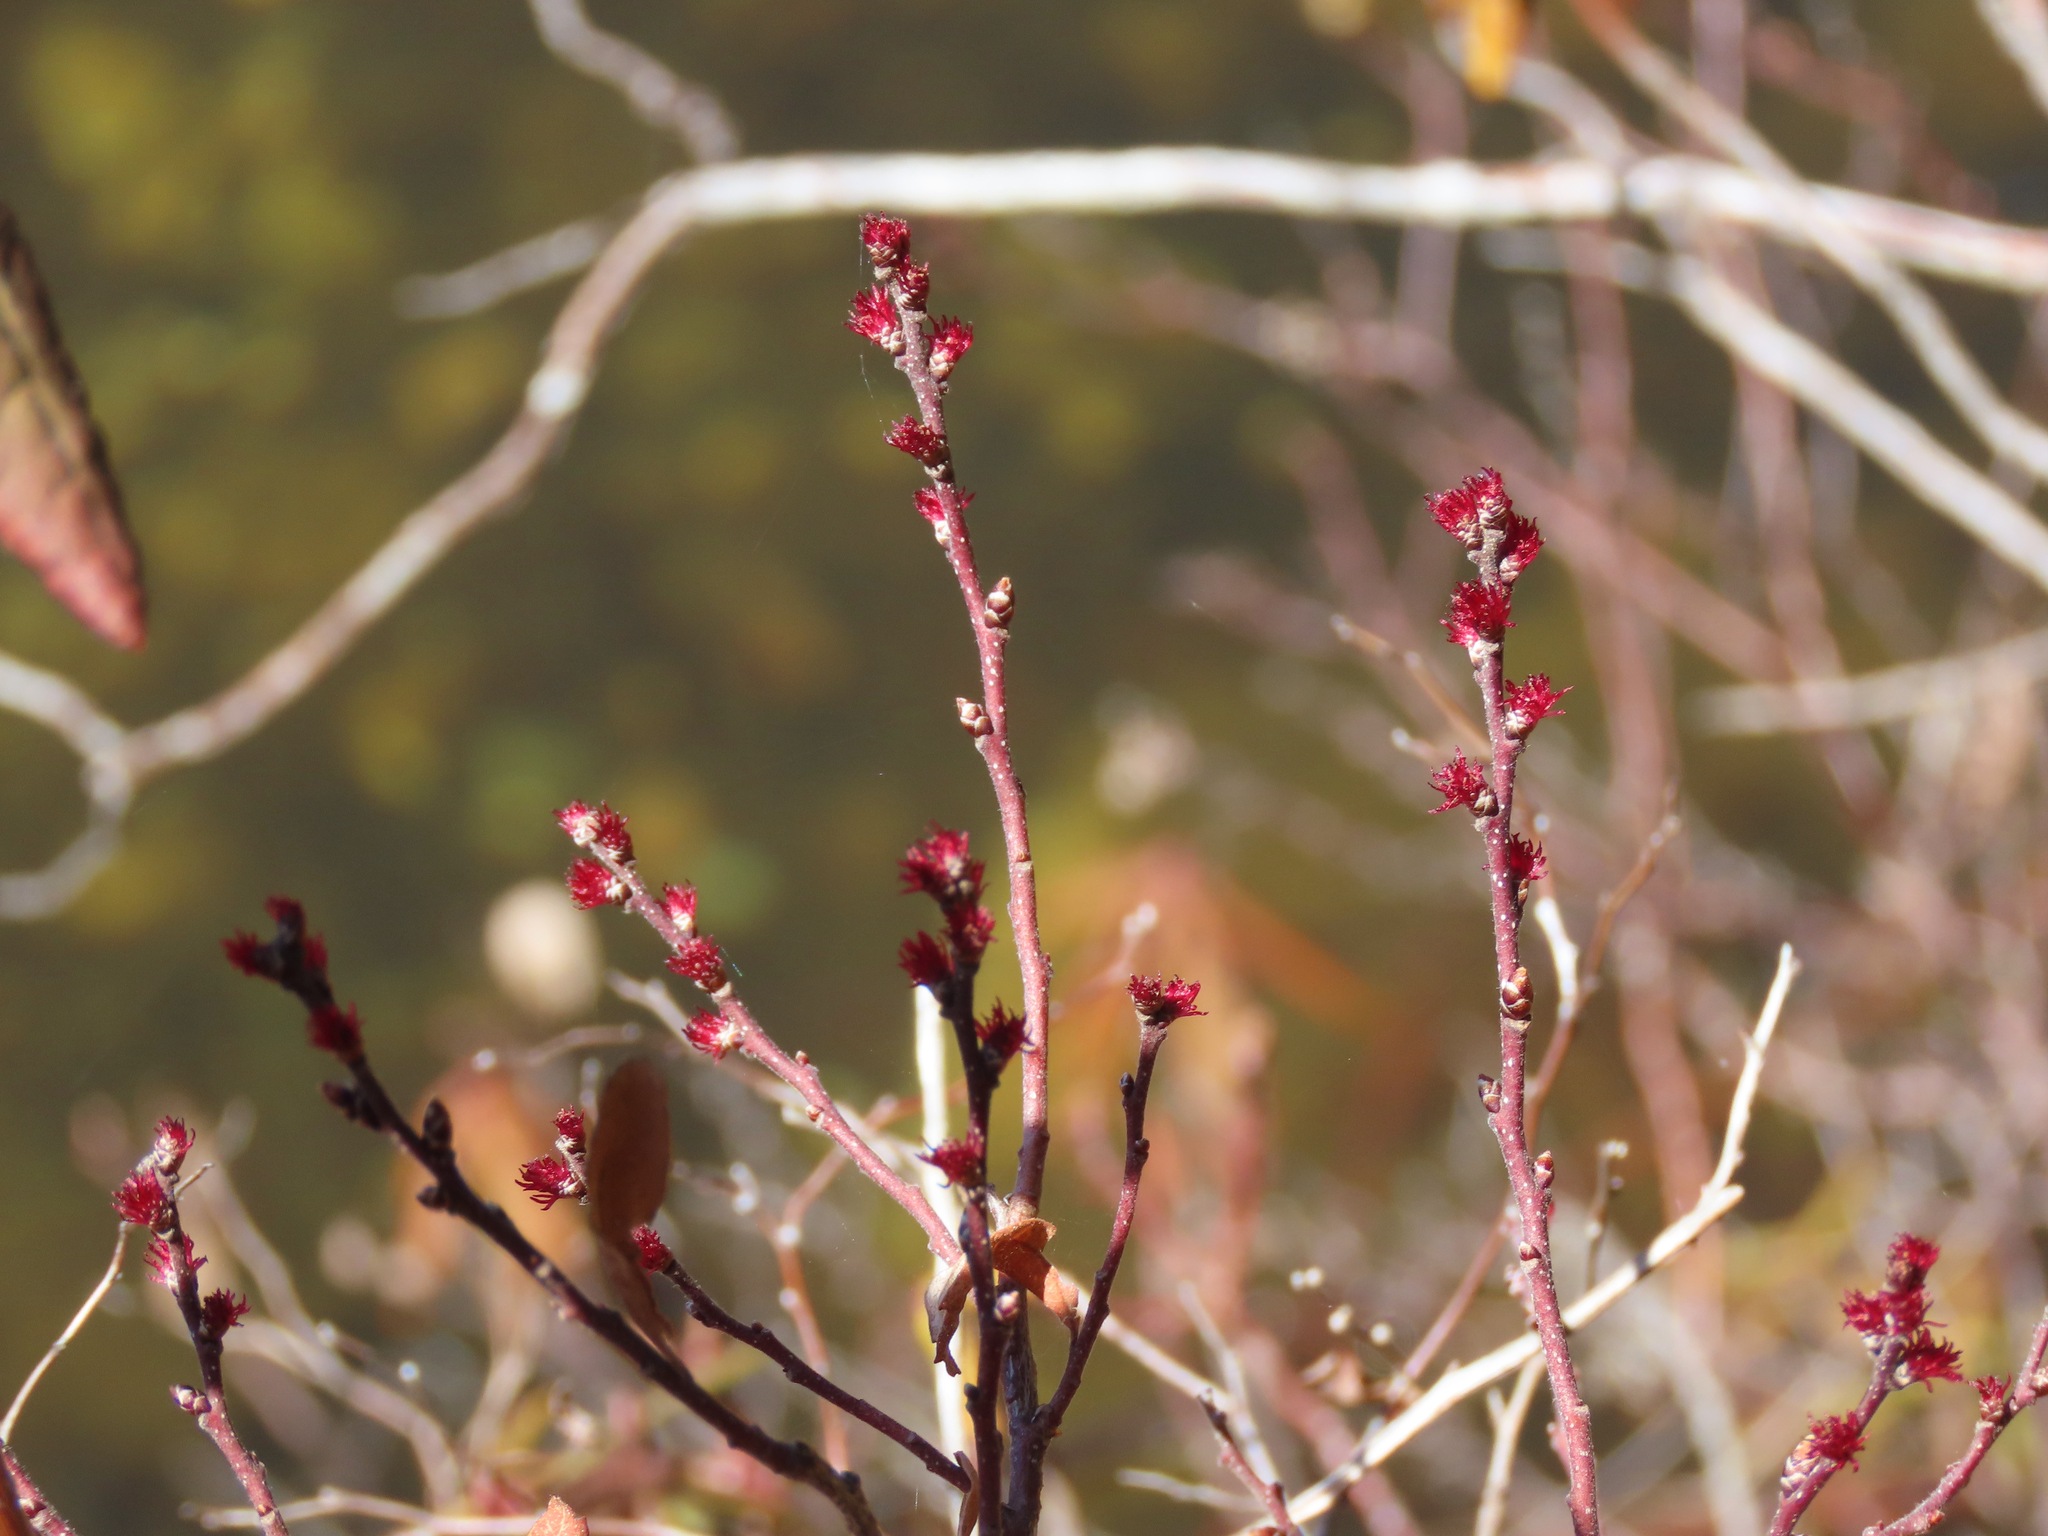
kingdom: Plantae
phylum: Tracheophyta
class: Magnoliopsida
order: Fagales
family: Myricaceae
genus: Myrica
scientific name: Myrica gale
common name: Sweet gale
